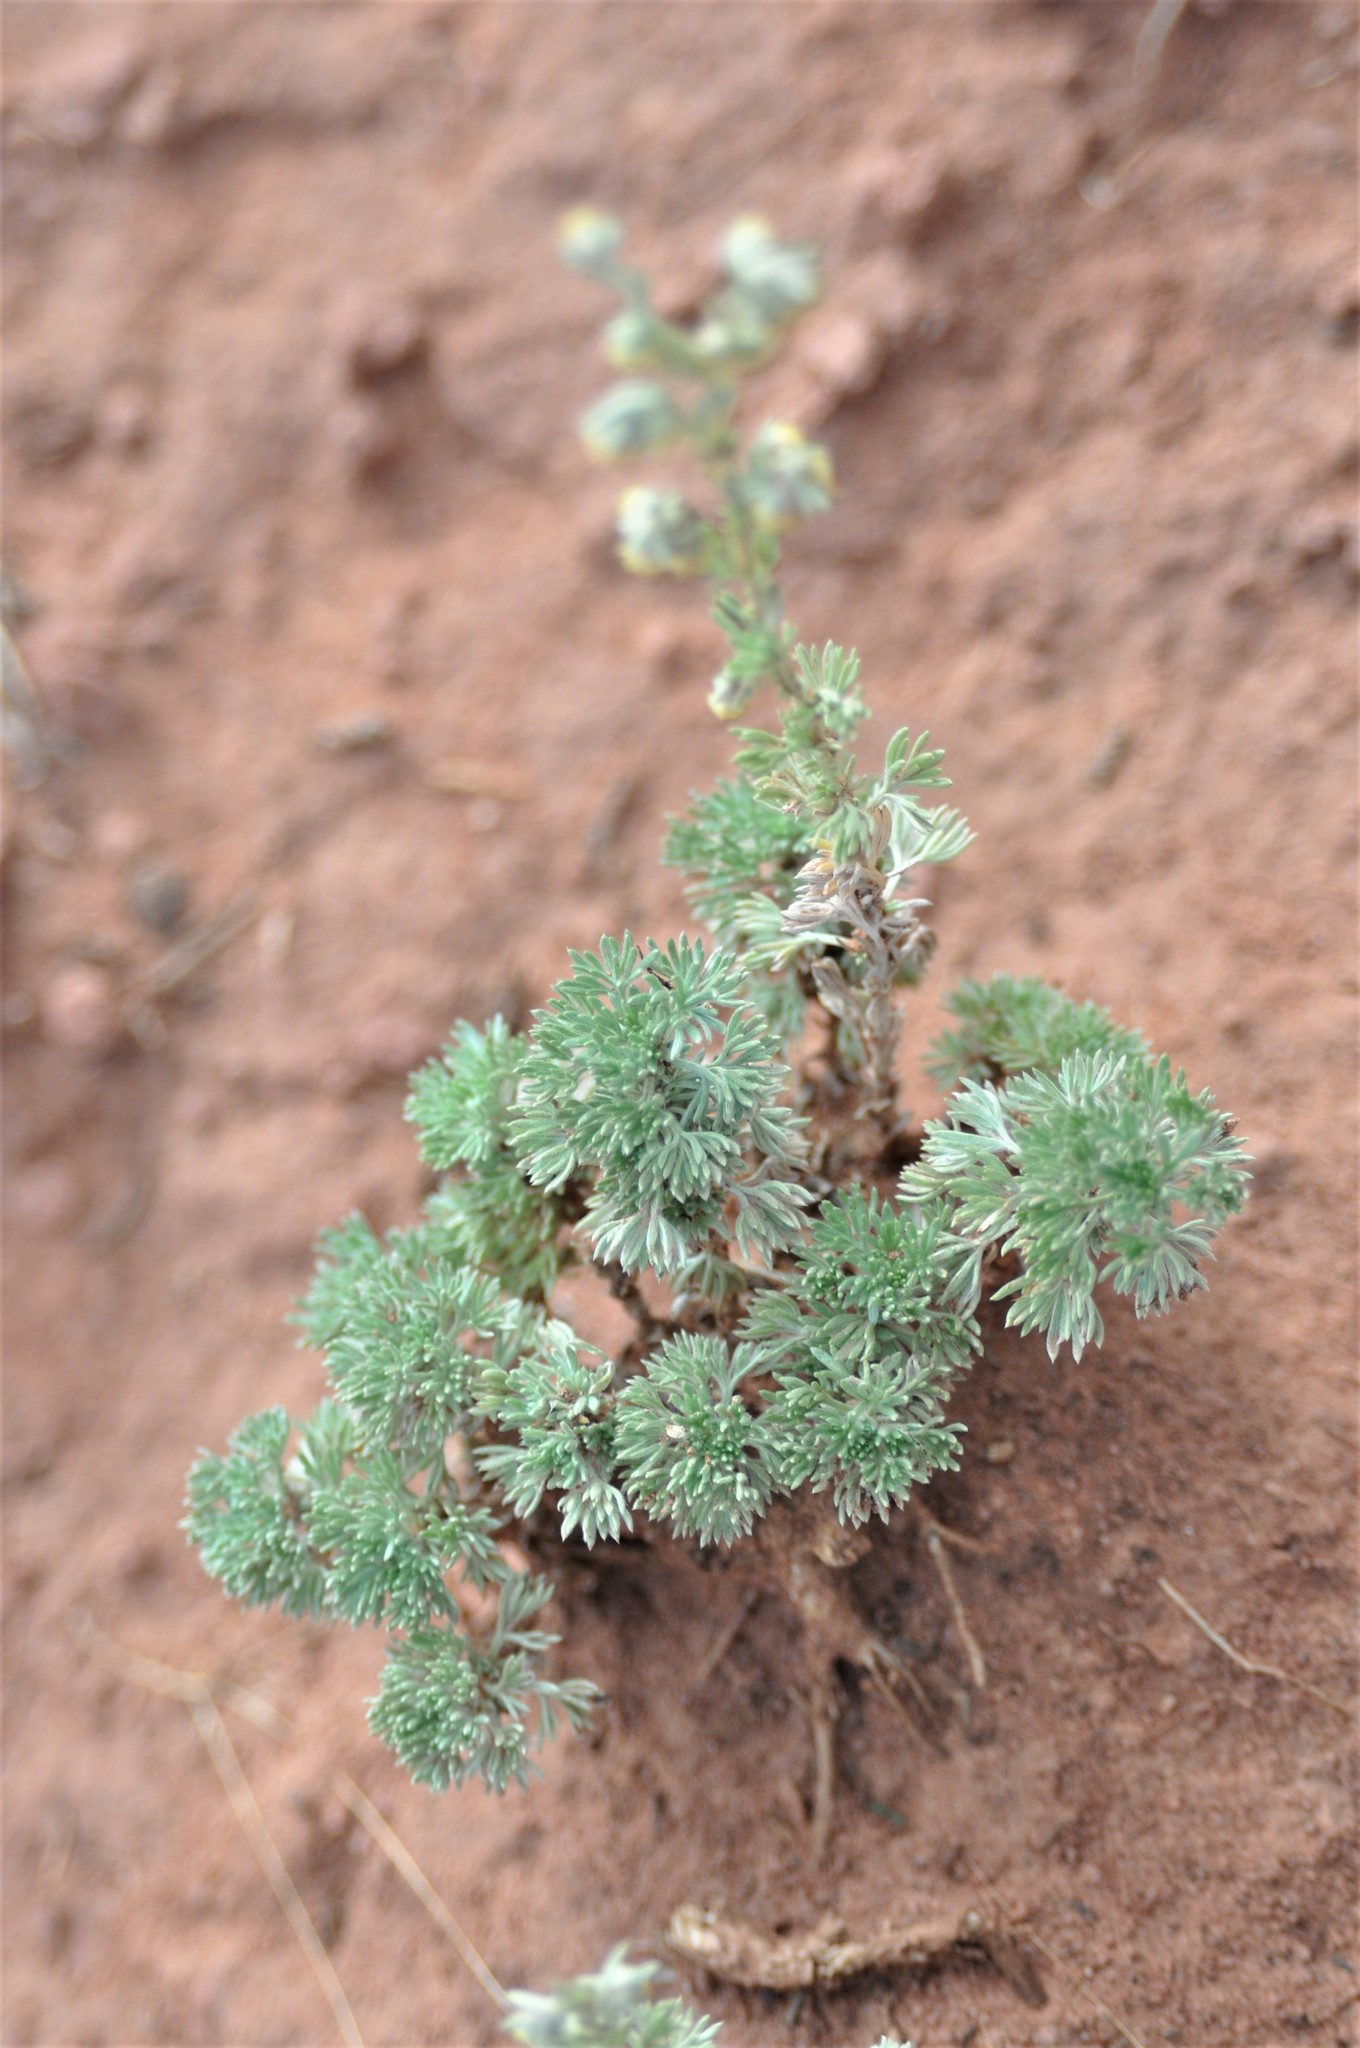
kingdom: Plantae
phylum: Tracheophyta
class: Magnoliopsida
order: Asterales
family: Asteraceae
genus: Artemisia
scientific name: Artemisia frigida
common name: Prairie sagewort
